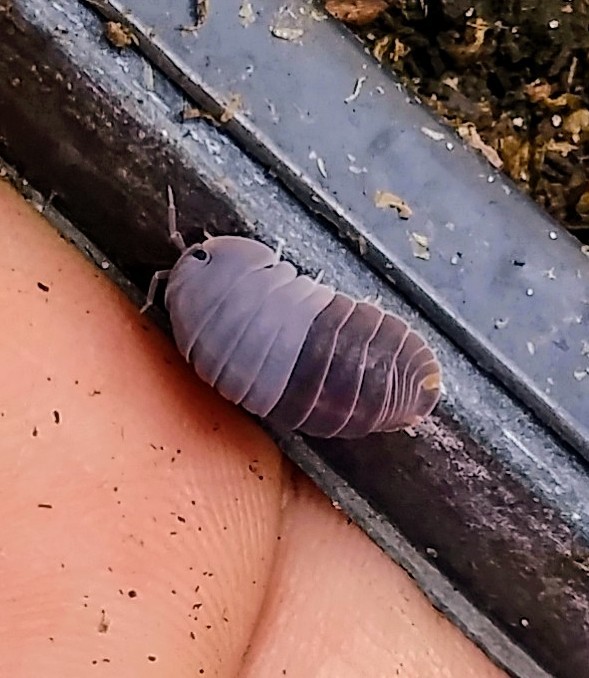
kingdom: Animalia
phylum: Arthropoda
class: Malacostraca
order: Isopoda
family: Armadillidae
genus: Cubaris
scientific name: Cubaris murina
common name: Pillbug
